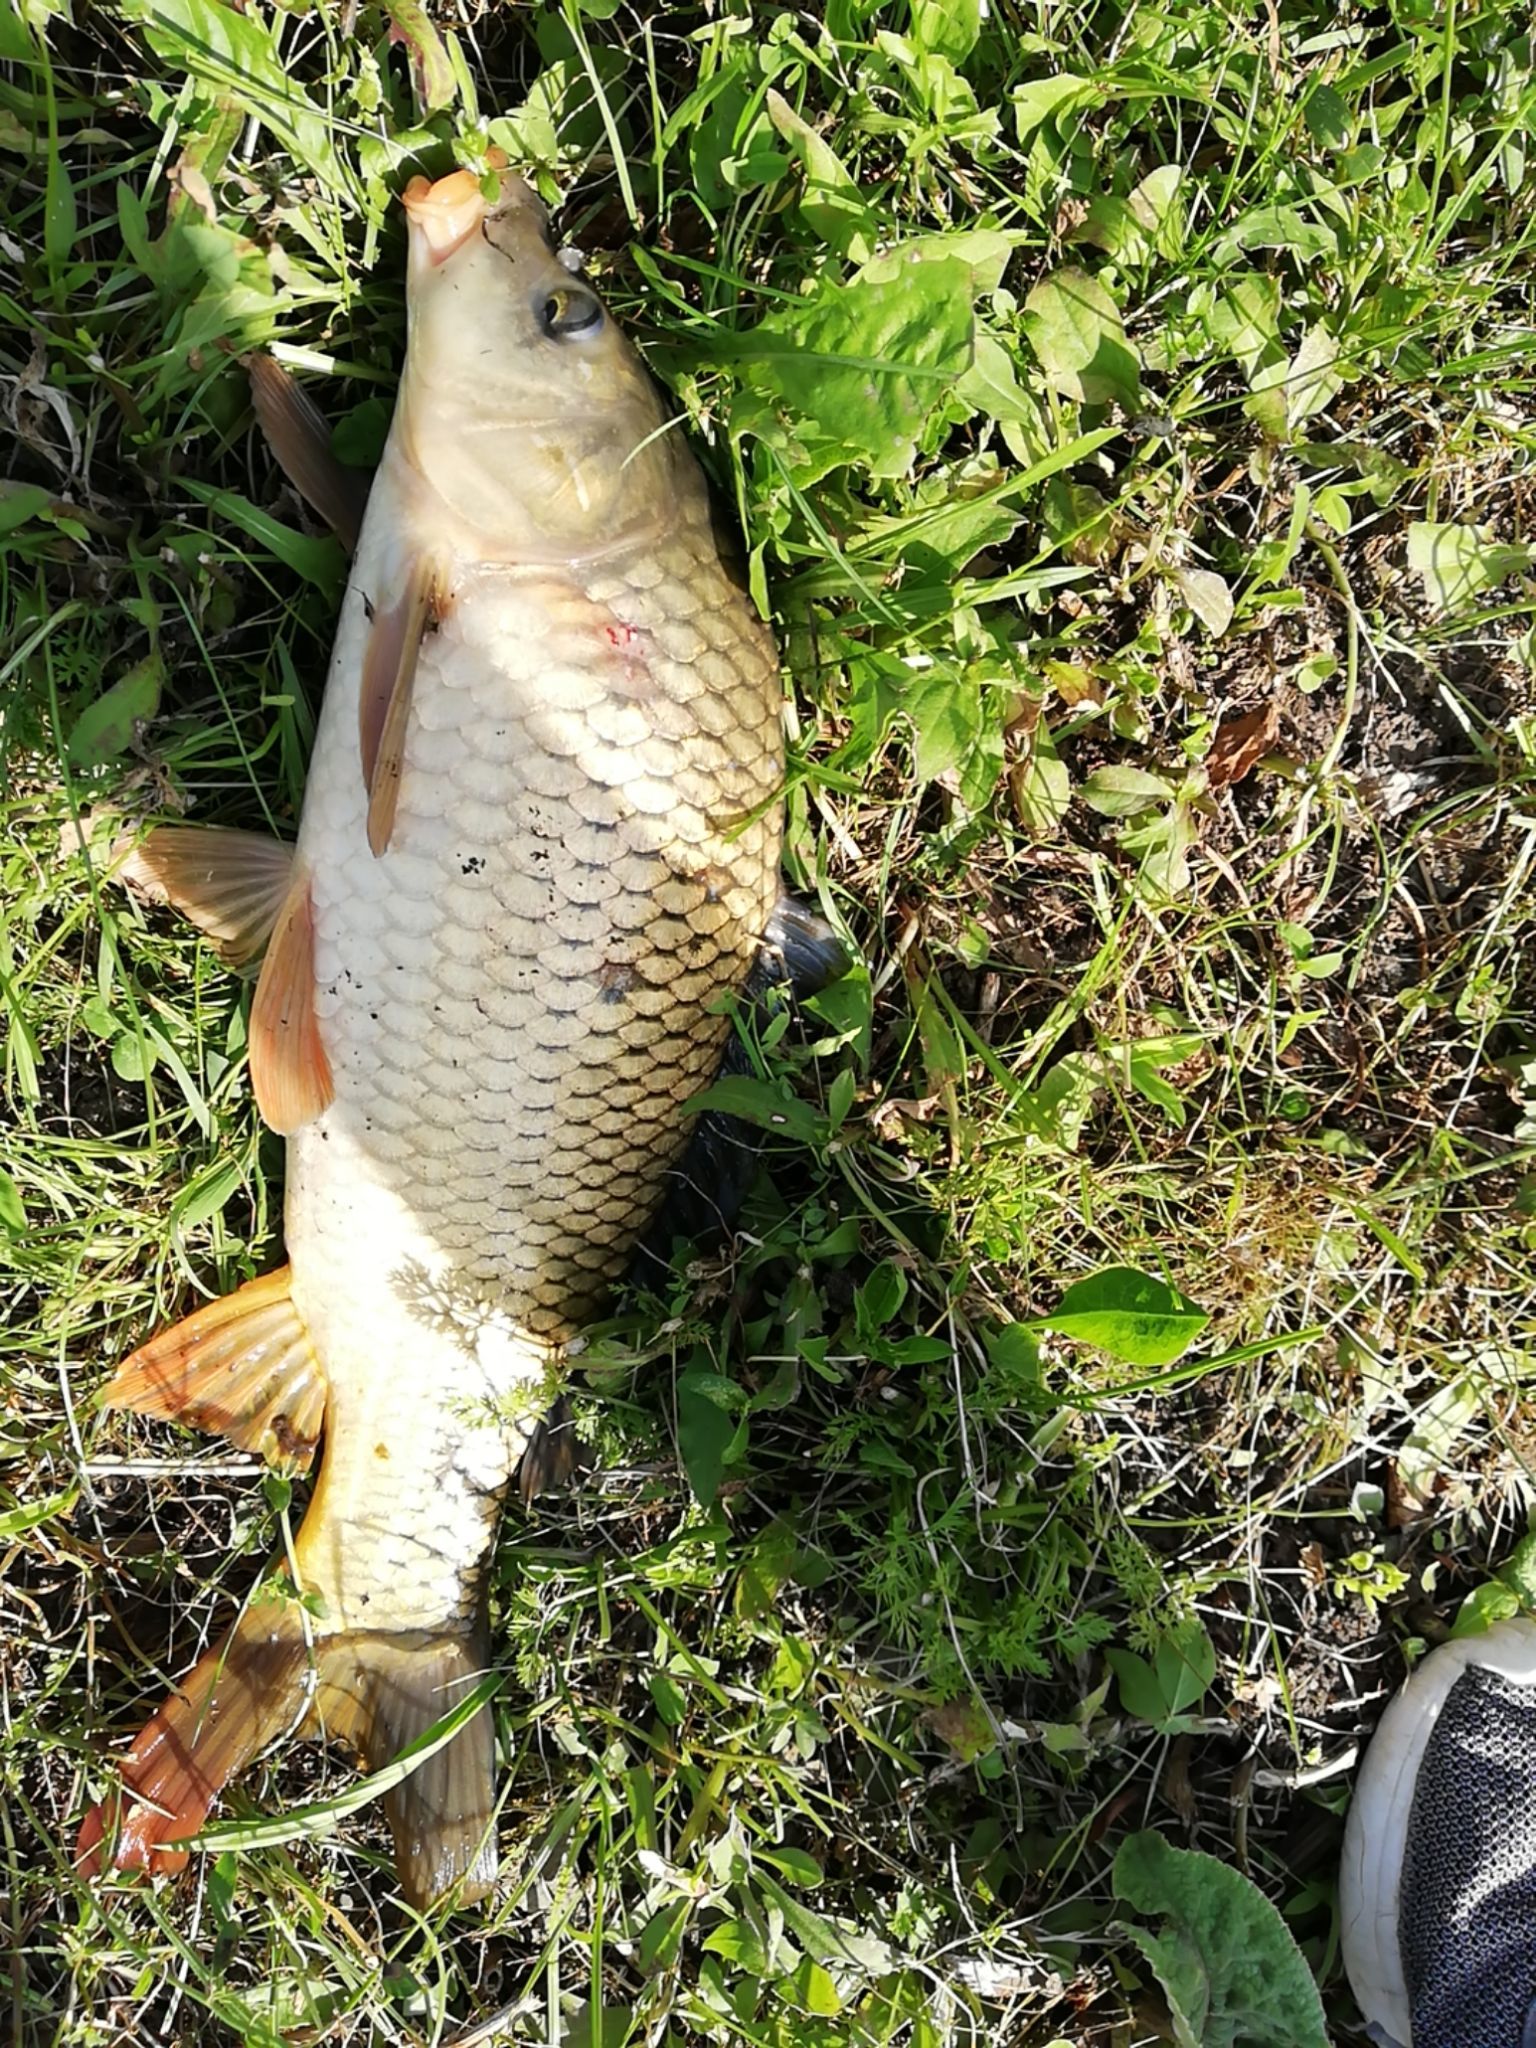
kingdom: Animalia
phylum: Chordata
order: Cypriniformes
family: Cyprinidae
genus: Cyprinus
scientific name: Cyprinus carpio
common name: Common carp
